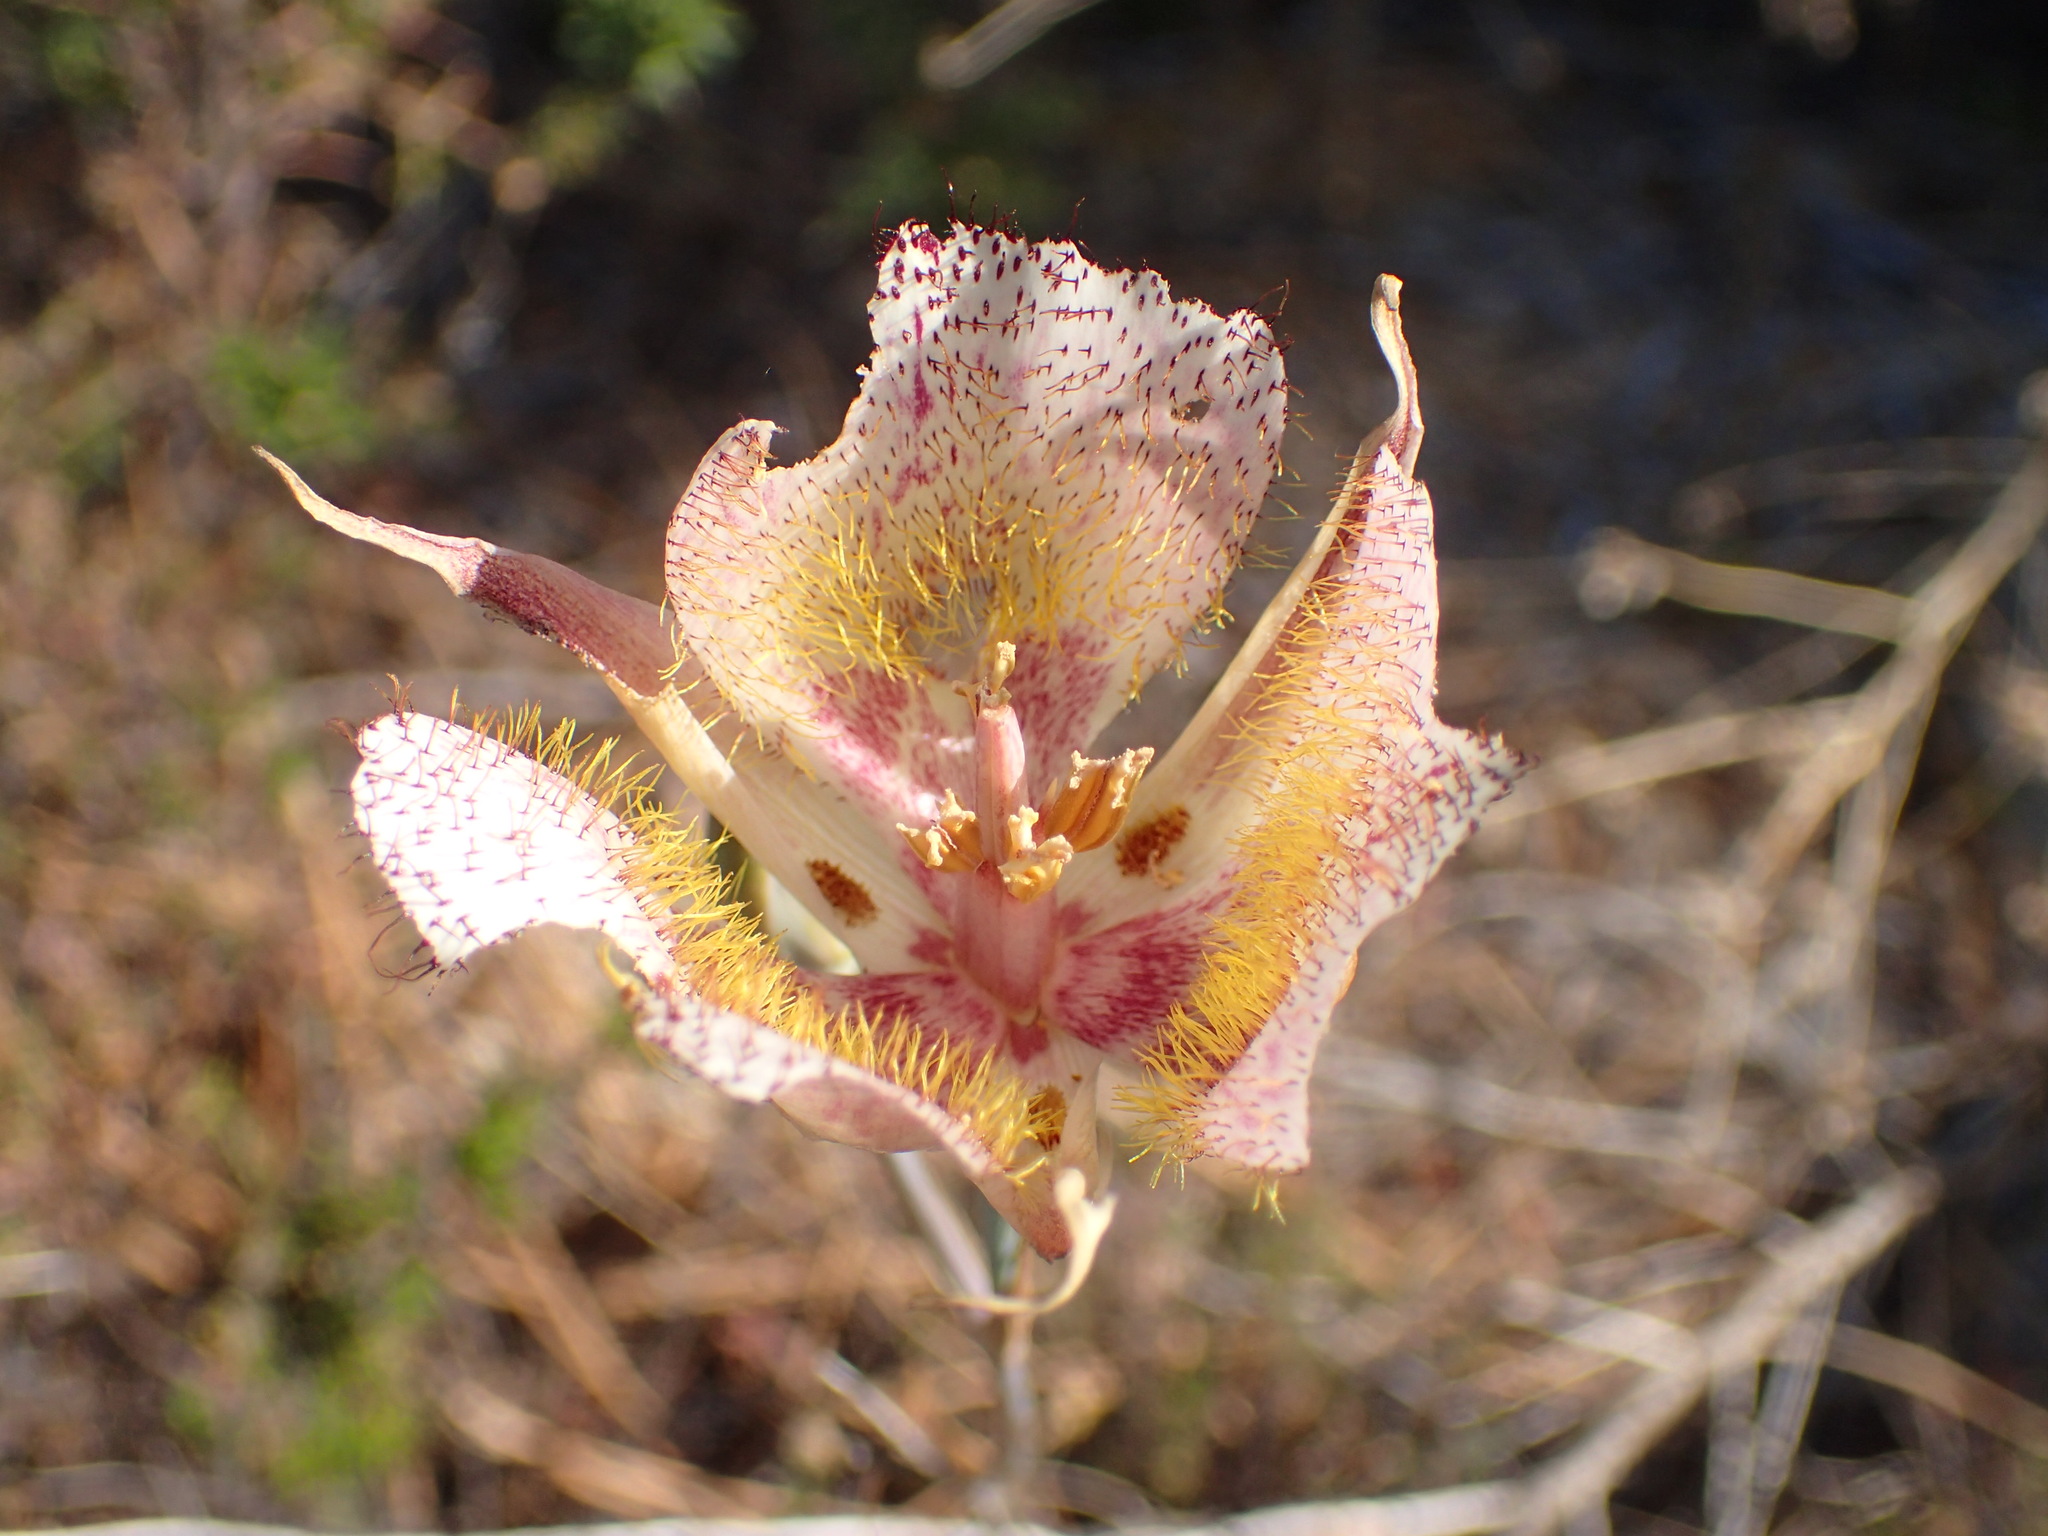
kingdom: Plantae
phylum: Tracheophyta
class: Liliopsida
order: Liliales
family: Liliaceae
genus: Calochortus
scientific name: Calochortus fimbriatus
